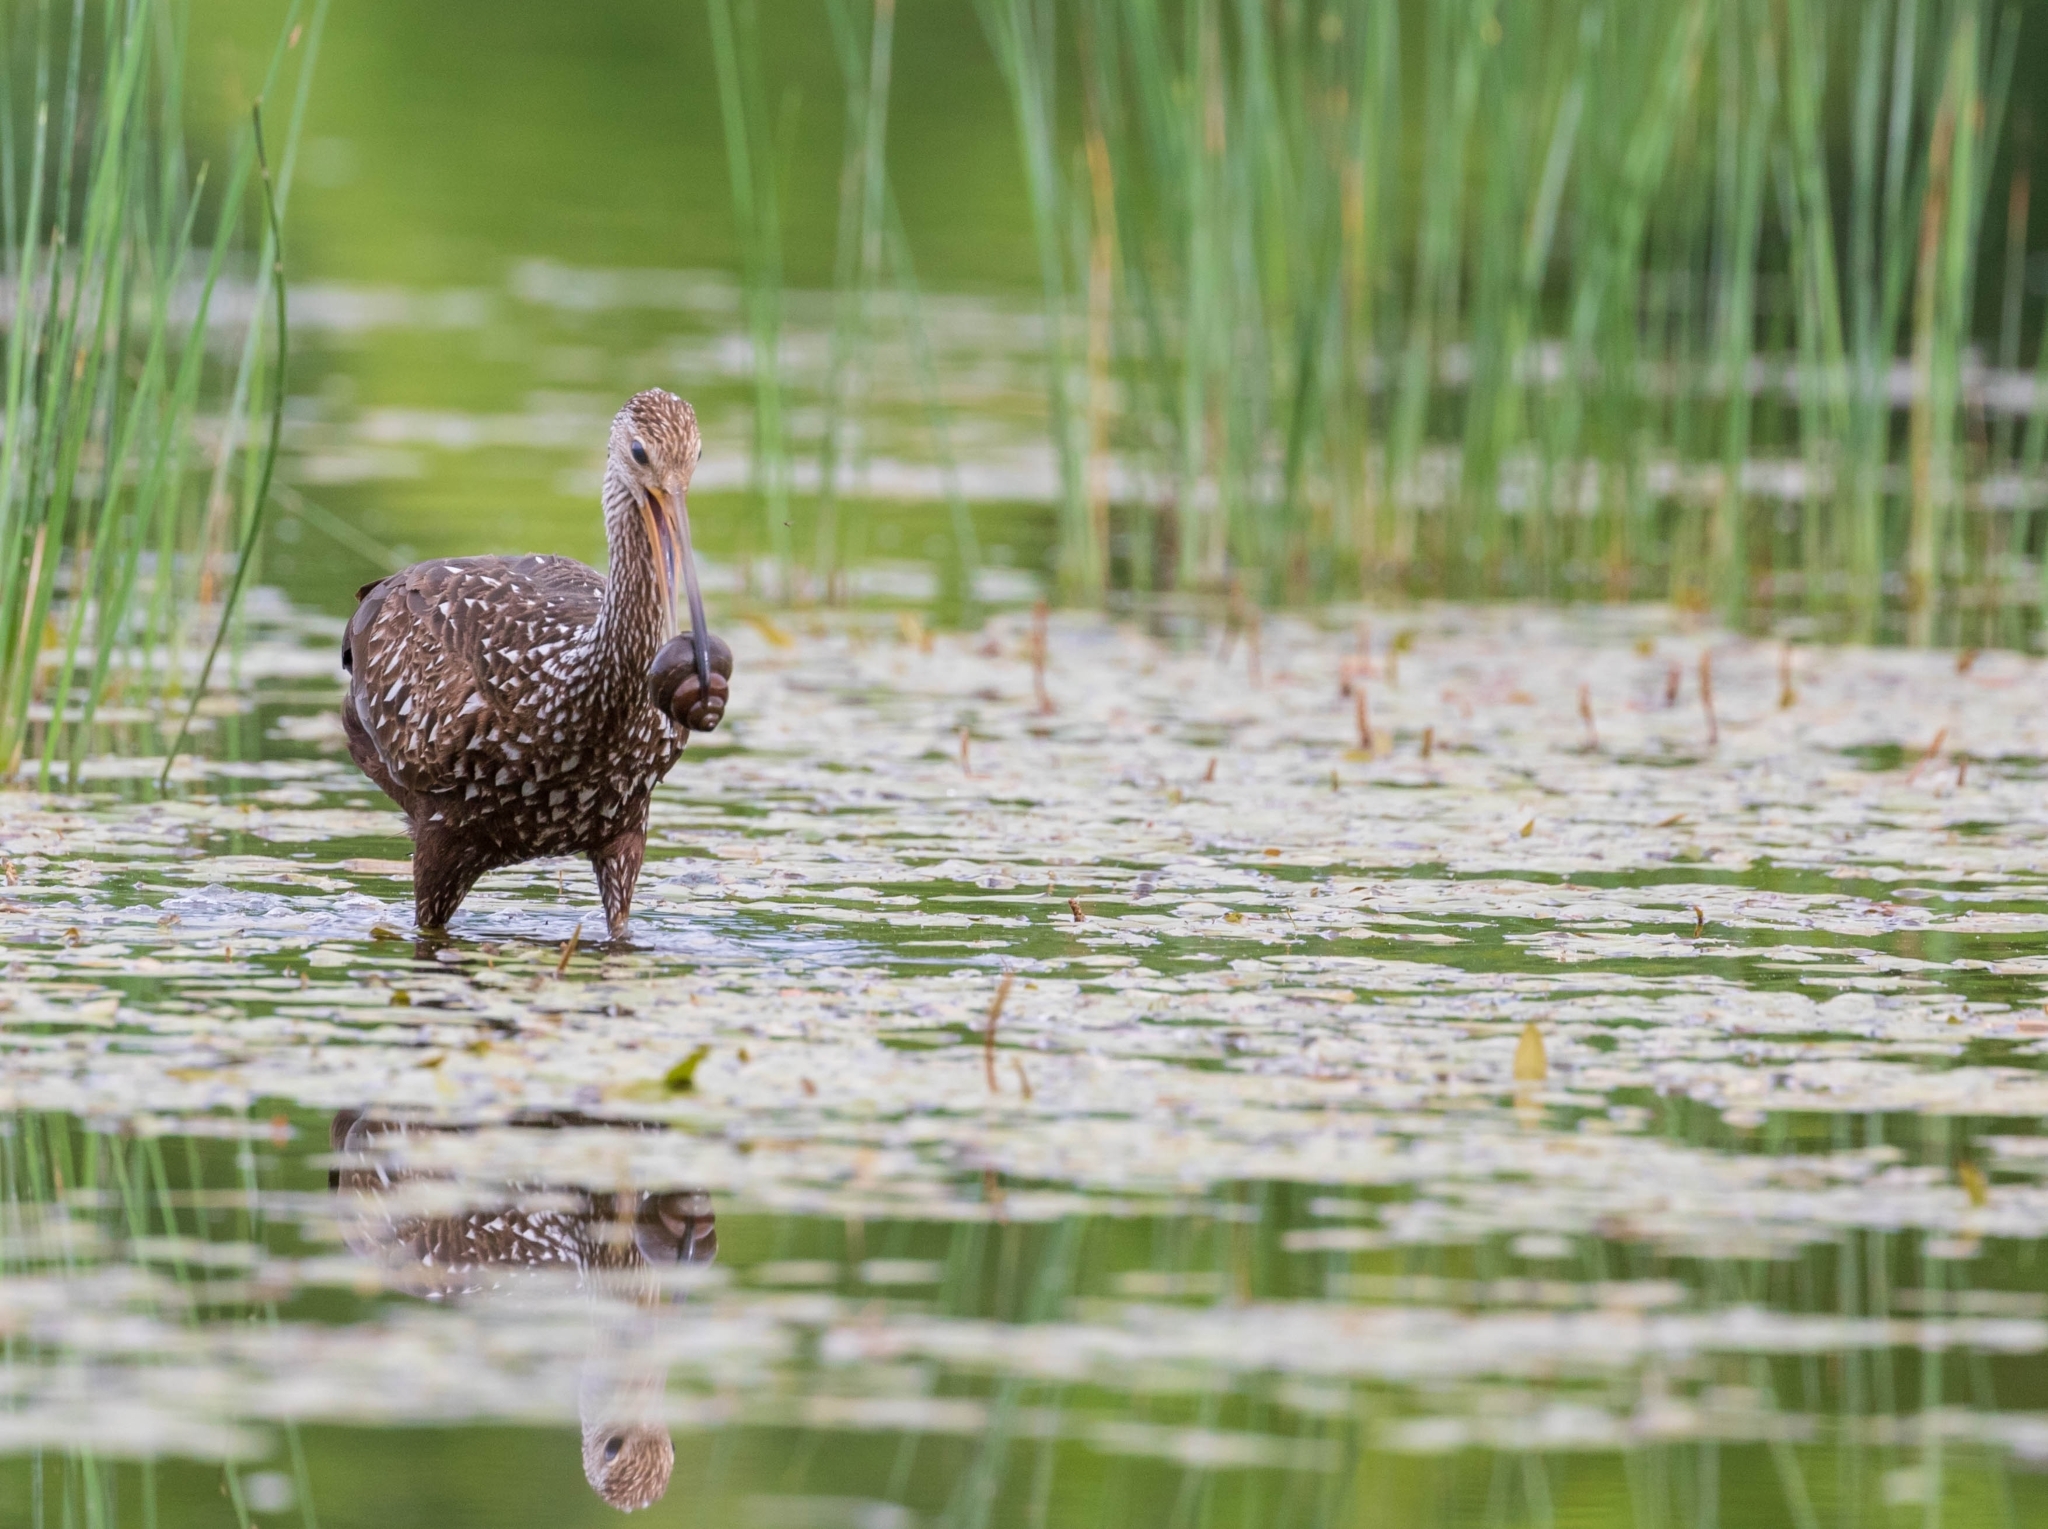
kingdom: Animalia
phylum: Chordata
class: Aves
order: Gruiformes
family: Aramidae
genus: Aramus
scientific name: Aramus guarauna
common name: Limpkin
